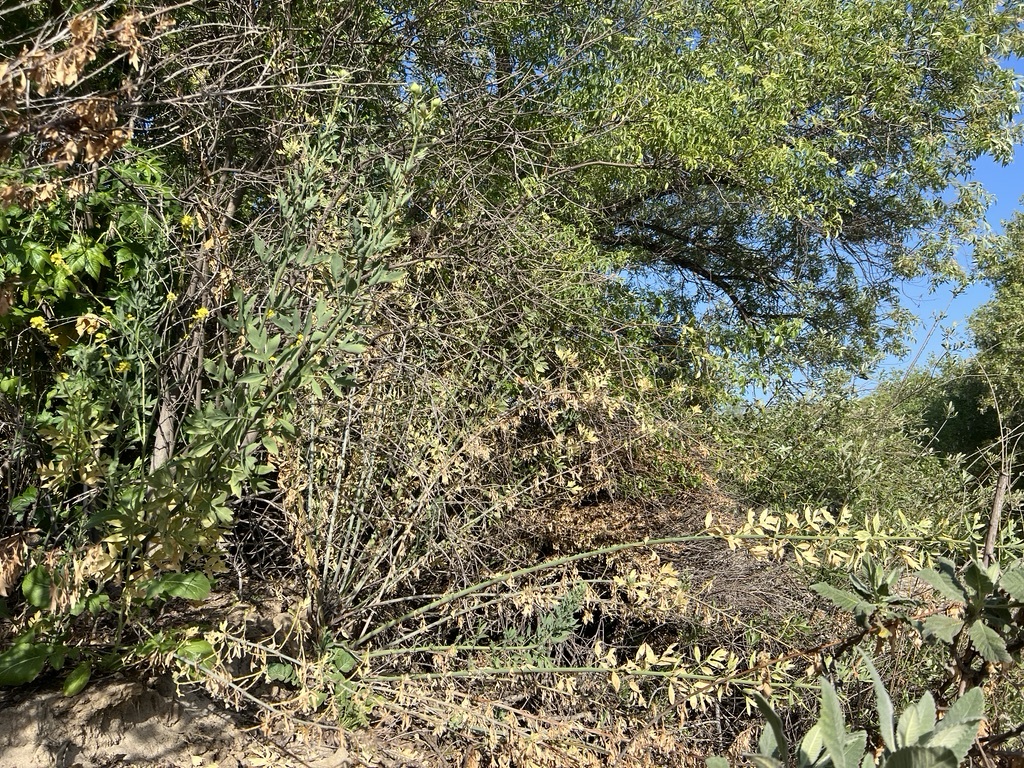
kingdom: Plantae
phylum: Tracheophyta
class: Magnoliopsida
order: Ranunculales
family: Papaveraceae
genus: Romneya
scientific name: Romneya coulteri
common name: California tree-poppy
